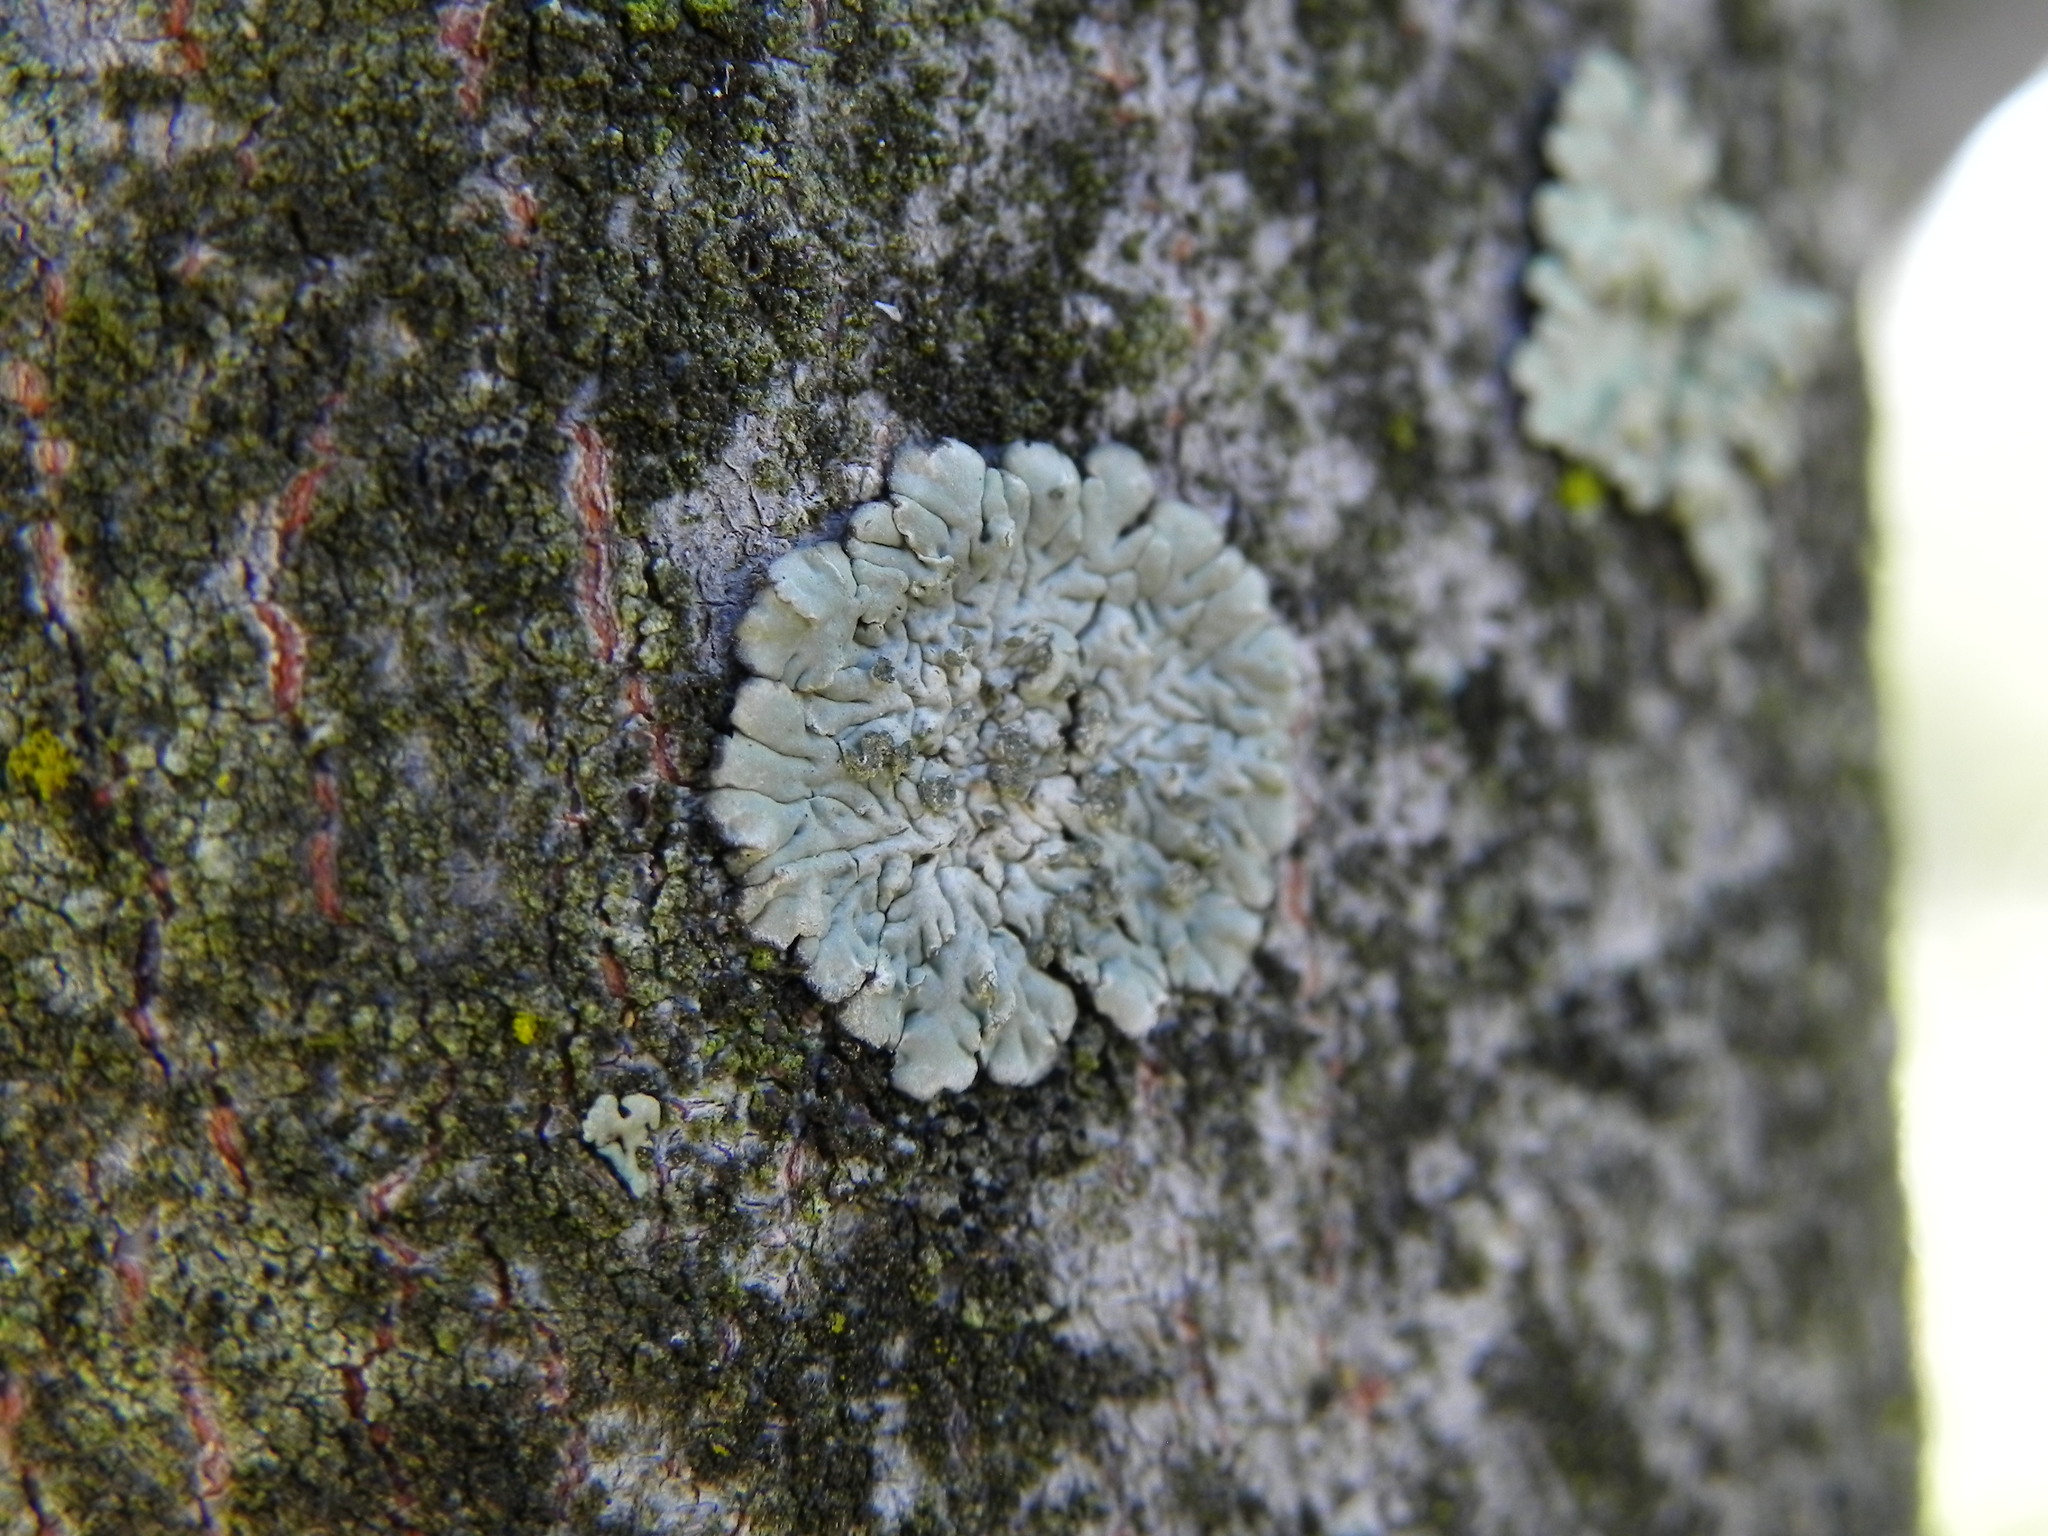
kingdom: Fungi
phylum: Ascomycota
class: Lecanoromycetes
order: Caliciales
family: Caliciaceae
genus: Diploicia
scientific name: Diploicia canescens
